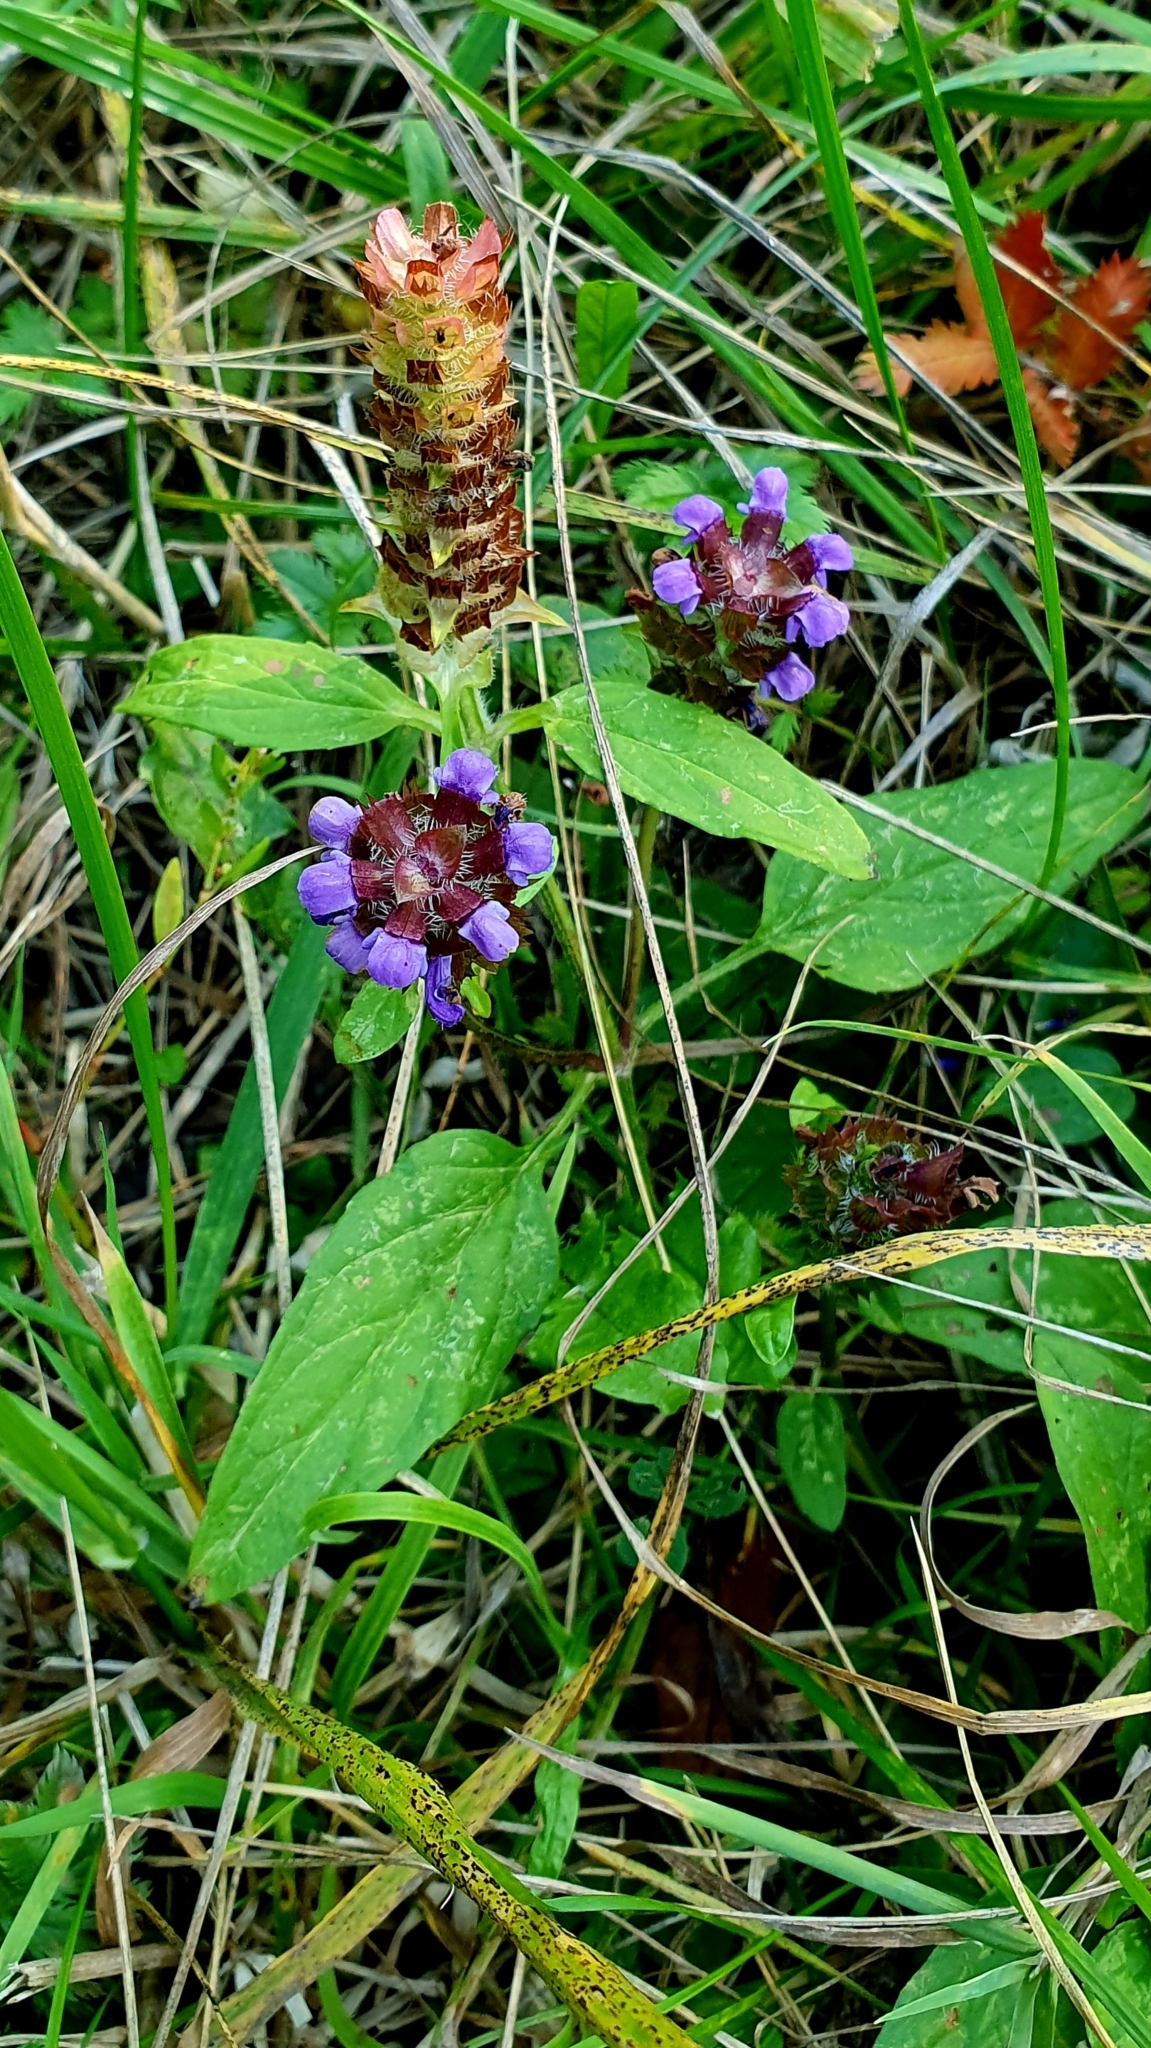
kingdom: Plantae
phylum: Tracheophyta
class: Magnoliopsida
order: Lamiales
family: Lamiaceae
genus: Prunella
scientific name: Prunella vulgaris
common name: Heal-all
